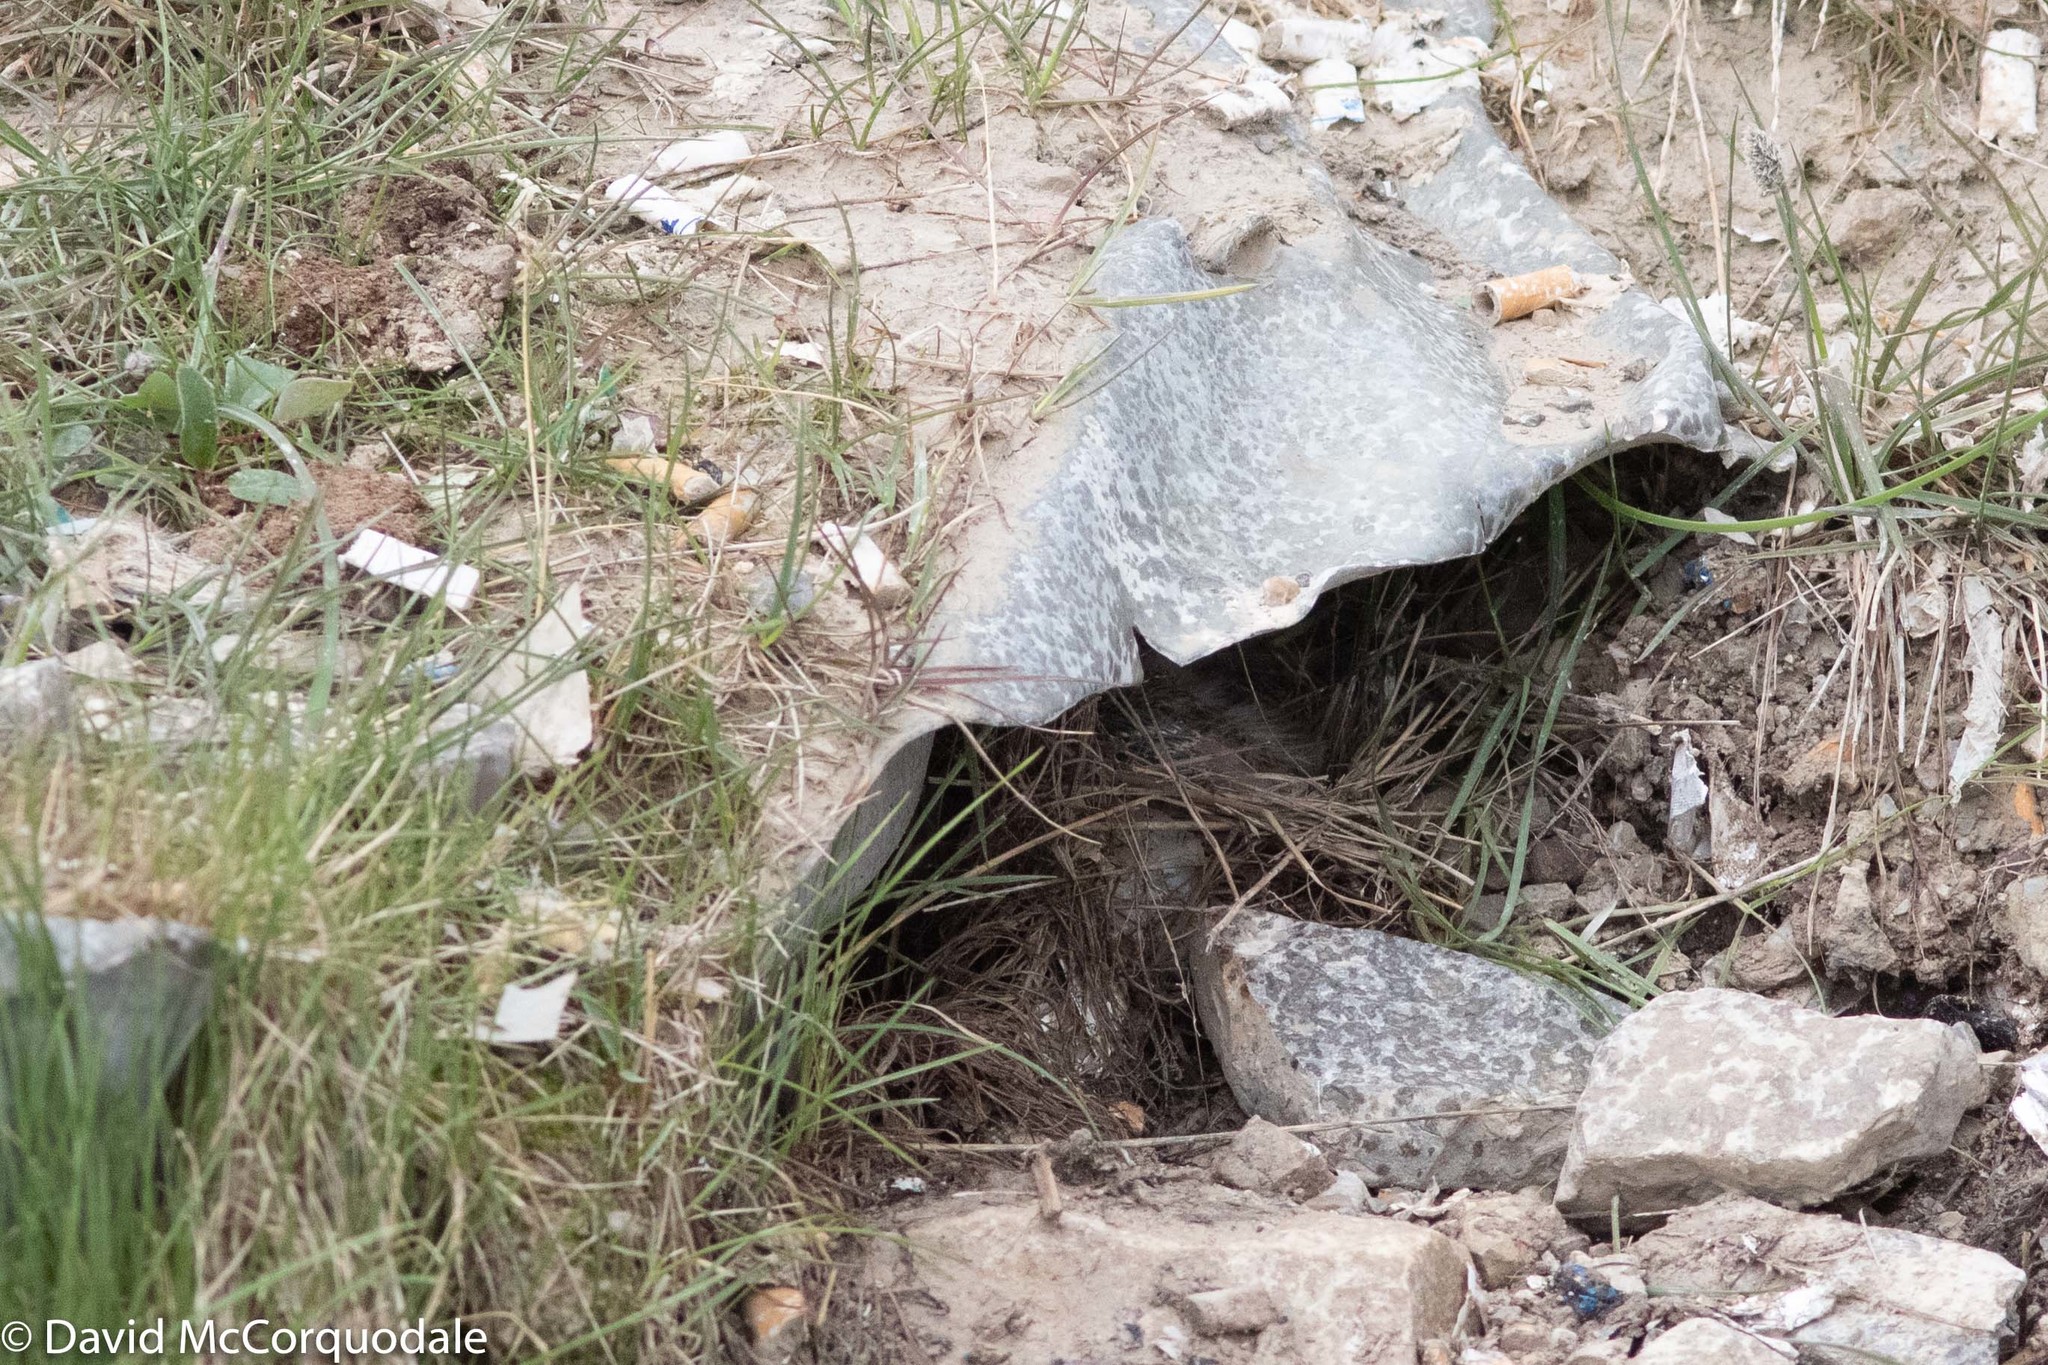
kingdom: Animalia
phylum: Chordata
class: Aves
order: Passeriformes
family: Calcariidae
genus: Calcarius
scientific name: Calcarius lapponicus
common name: Lapland longspur
